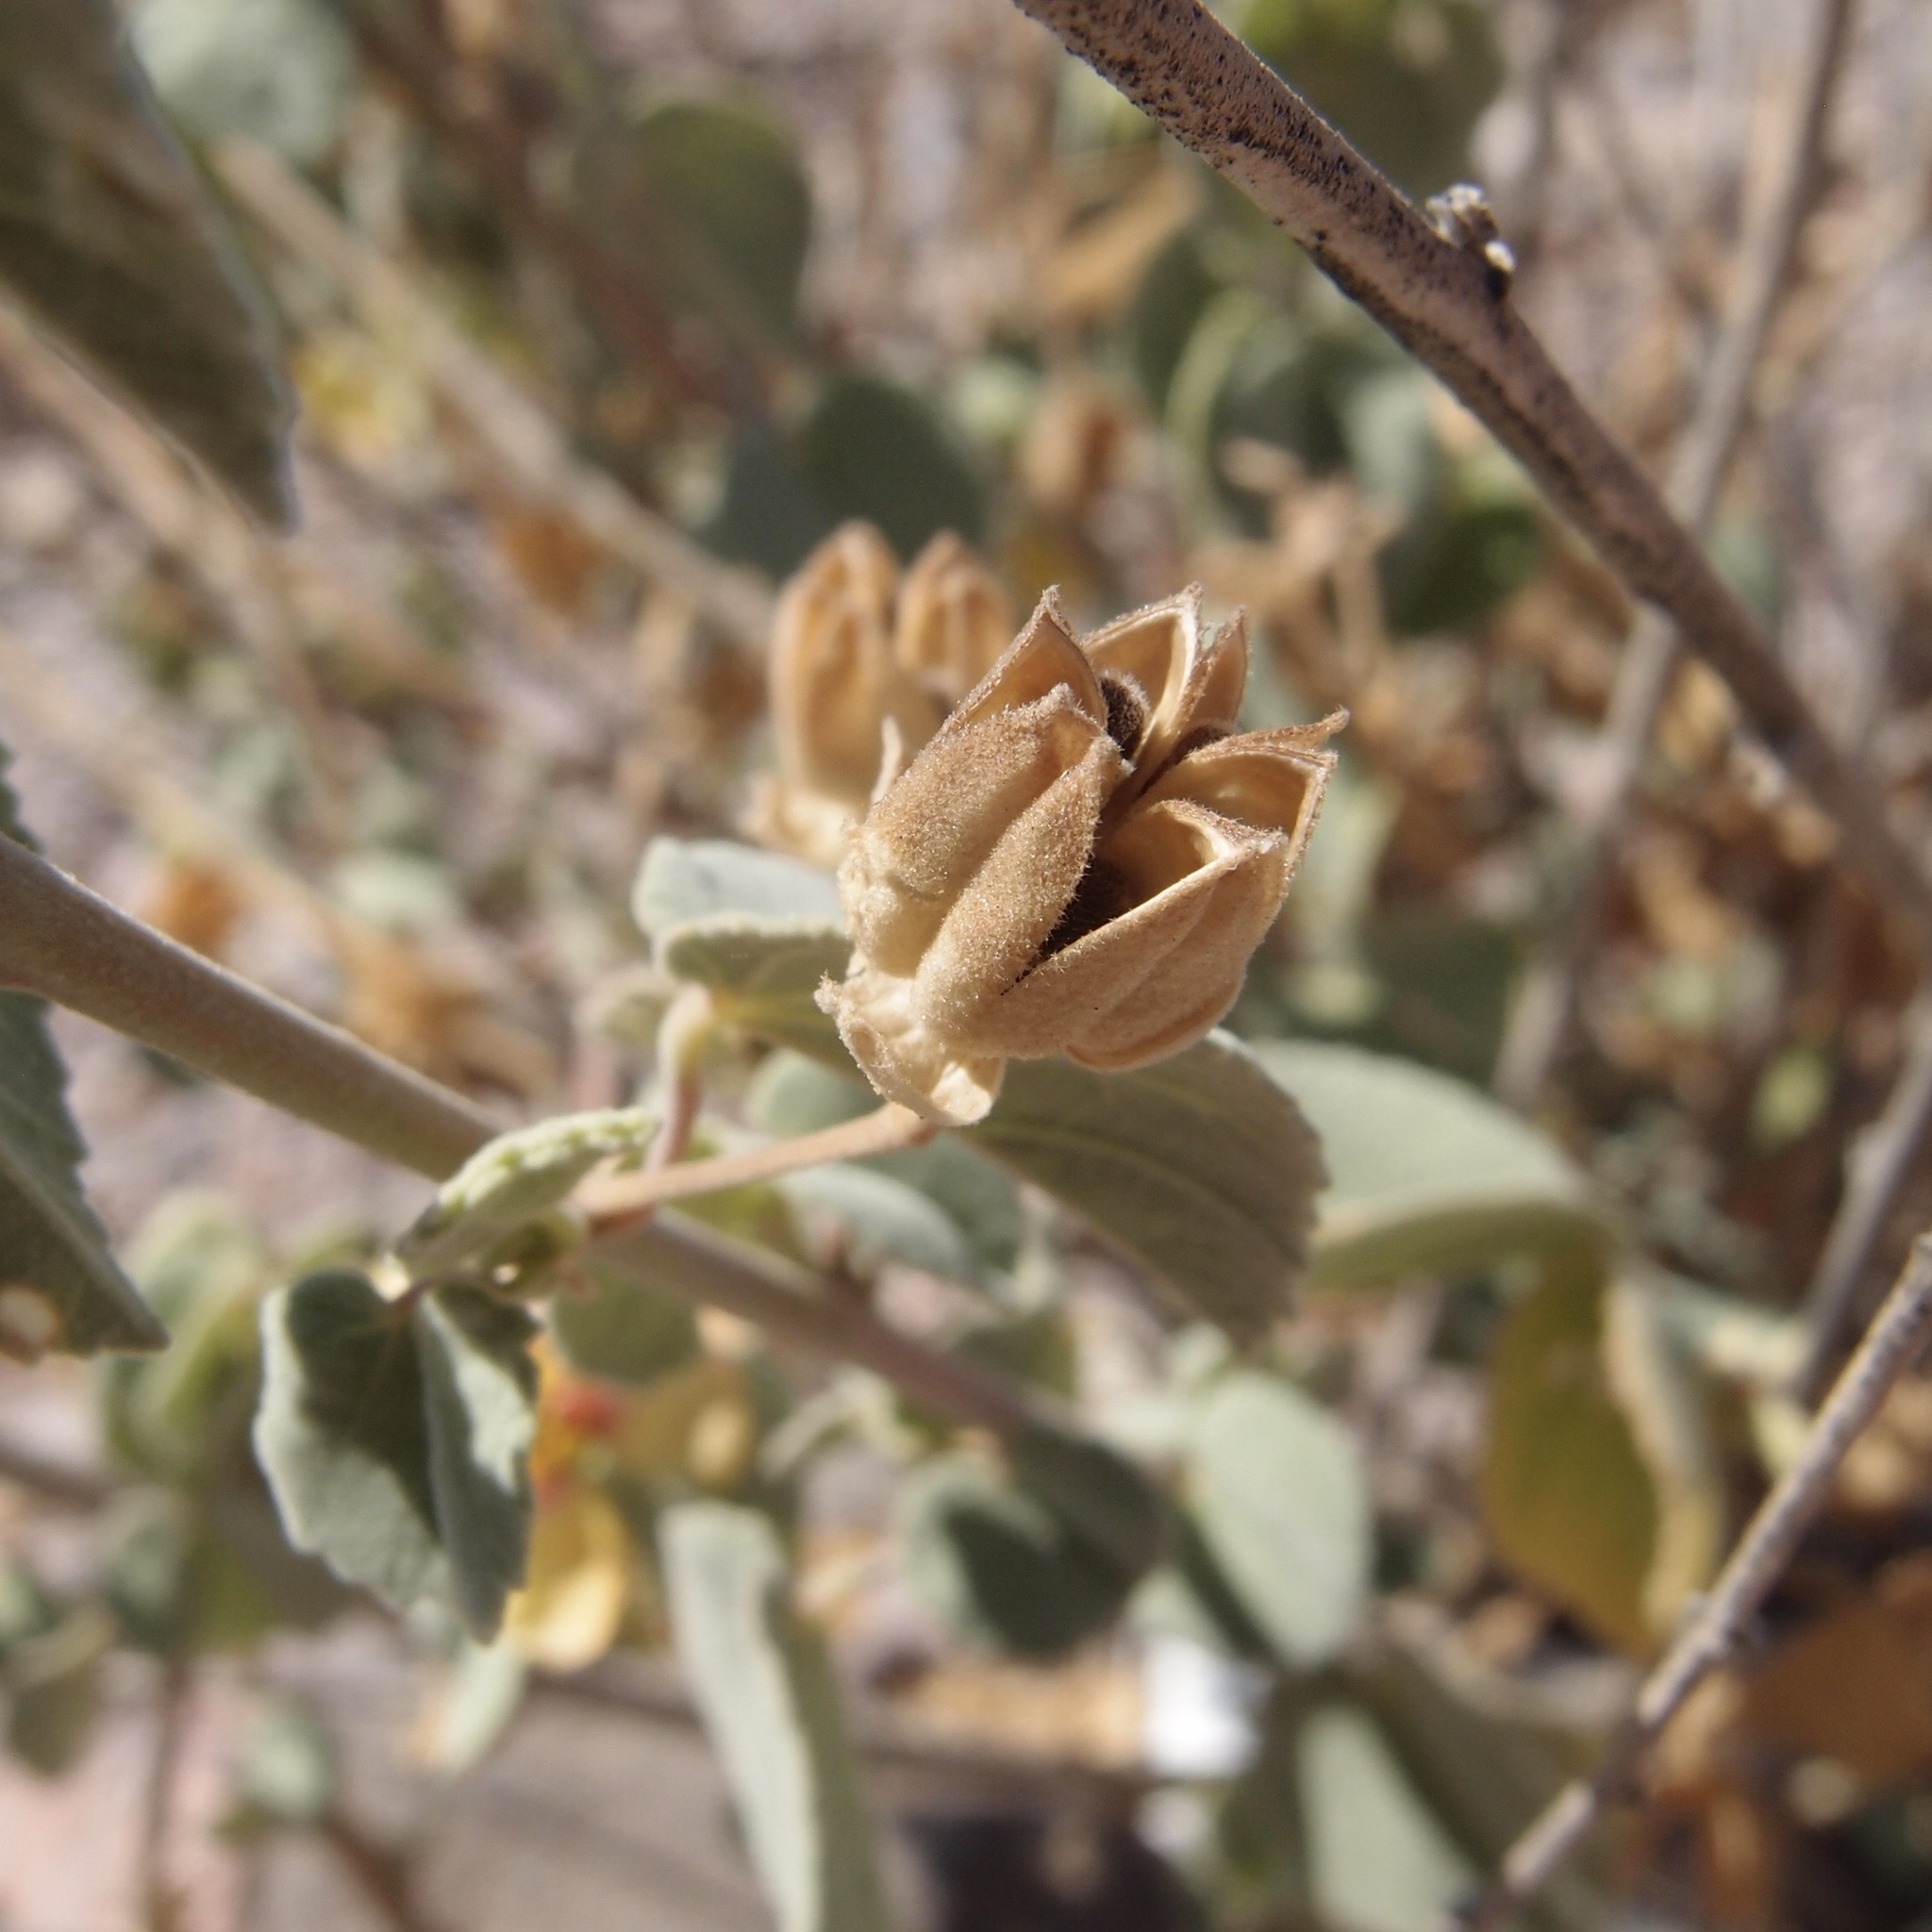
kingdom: Plantae
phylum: Tracheophyta
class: Magnoliopsida
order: Malvales
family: Malvaceae
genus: Abutilon
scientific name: Abutilon incanum
